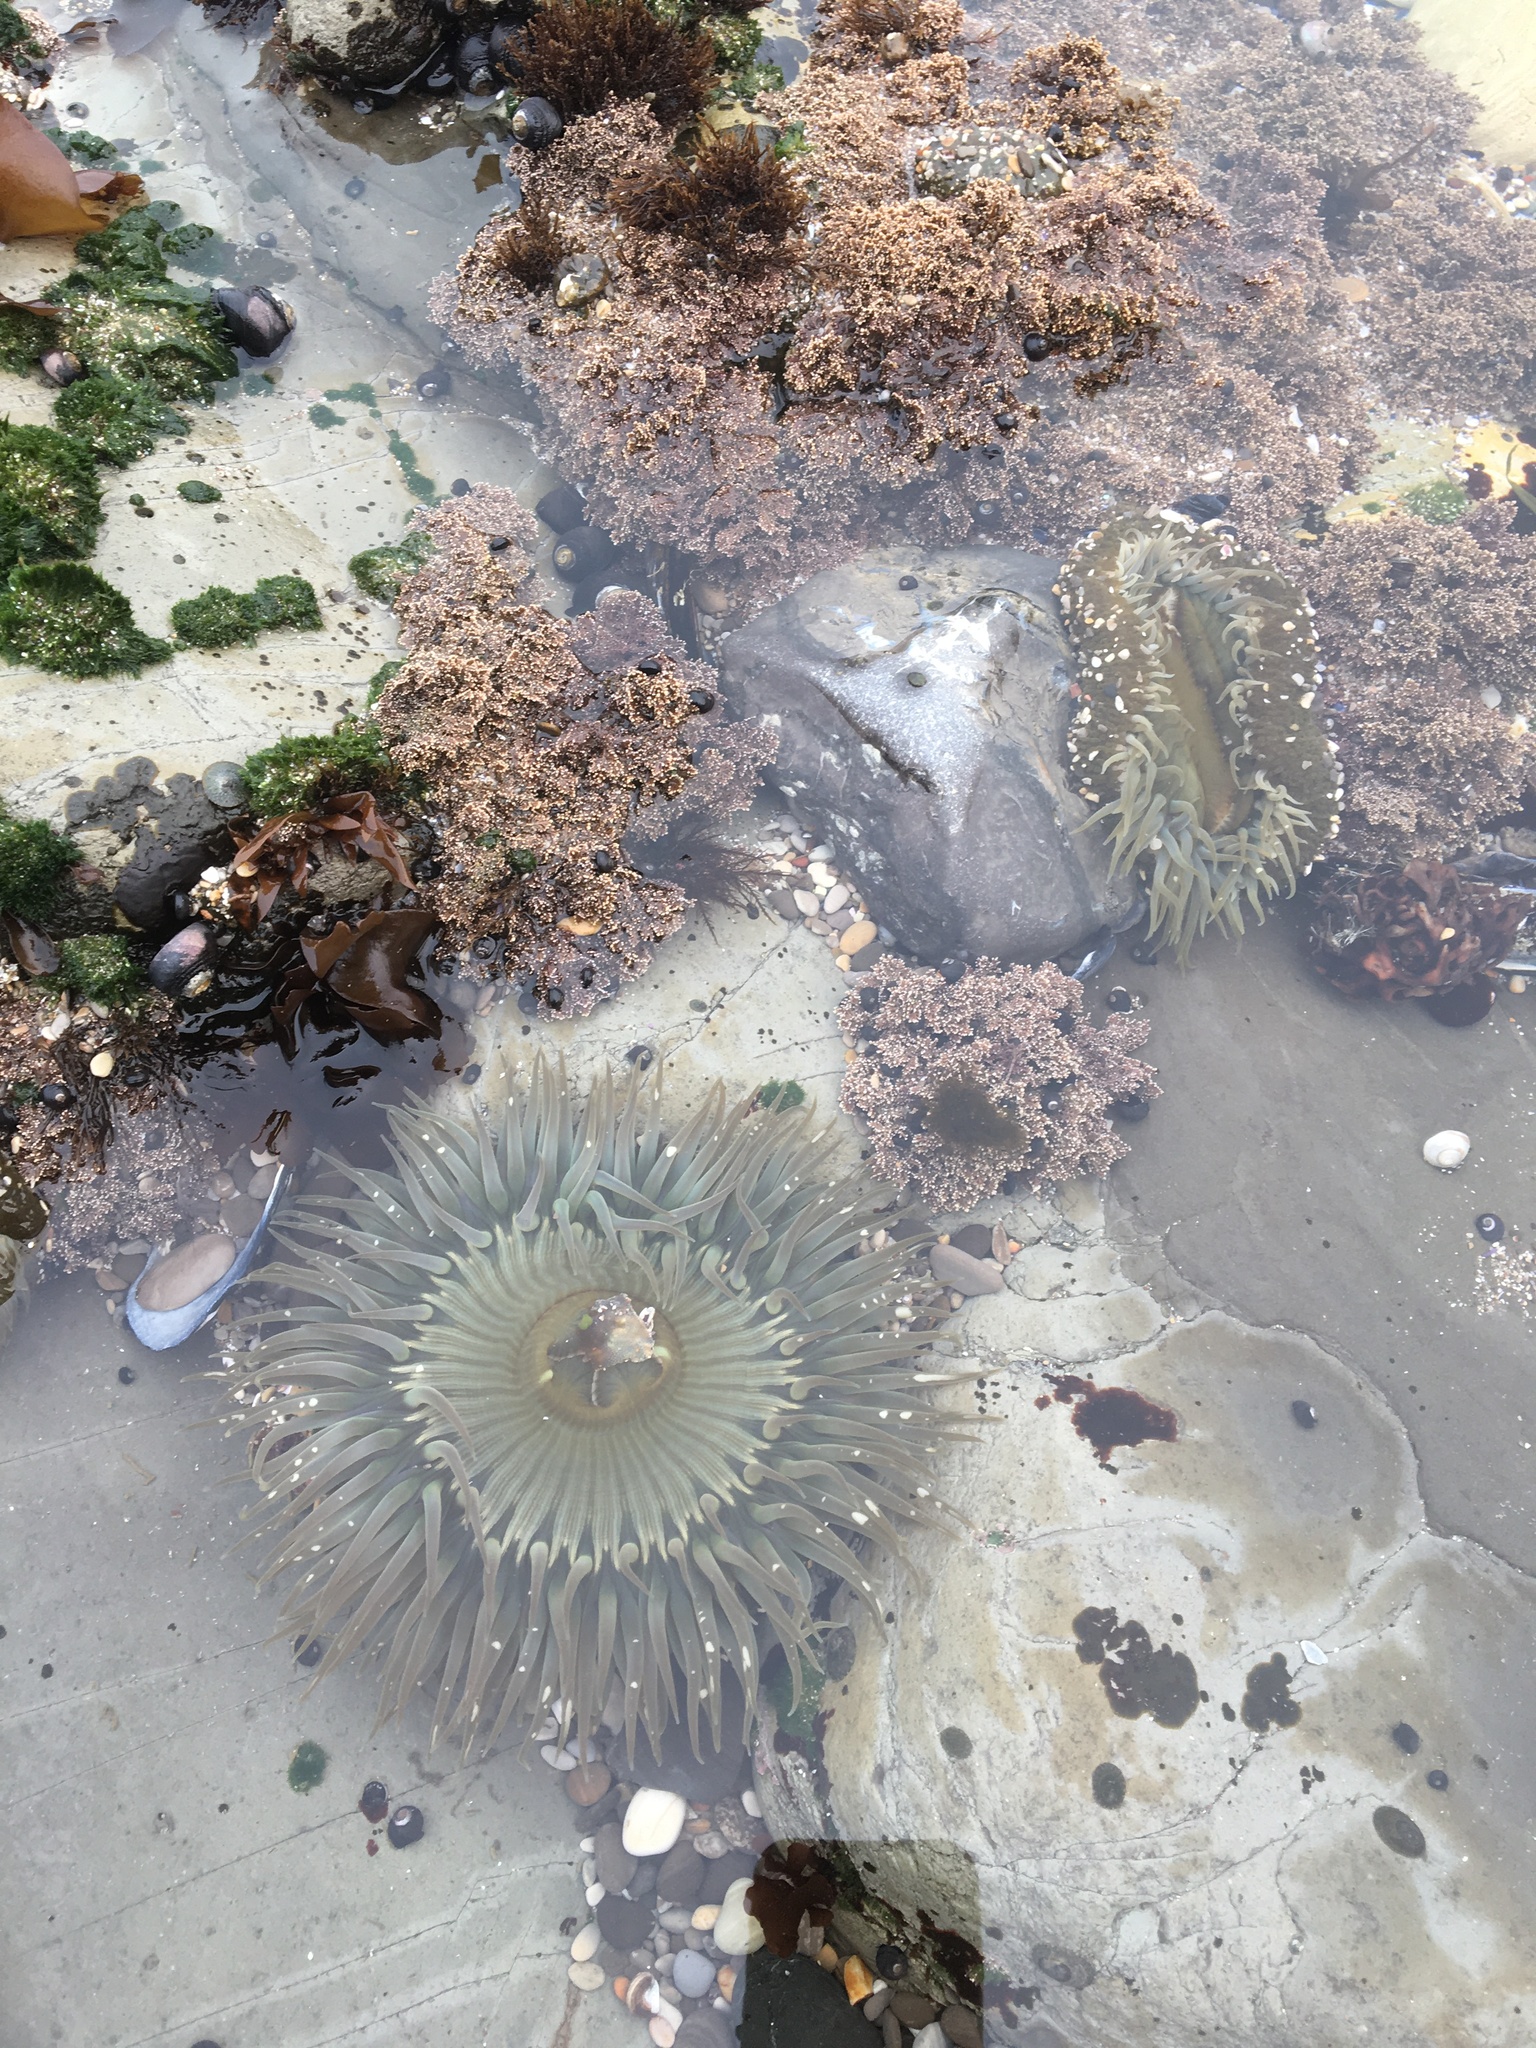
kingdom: Animalia
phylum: Cnidaria
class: Anthozoa
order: Actiniaria
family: Actiniidae
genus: Anthopleura
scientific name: Anthopleura sola
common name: Sun anemone
